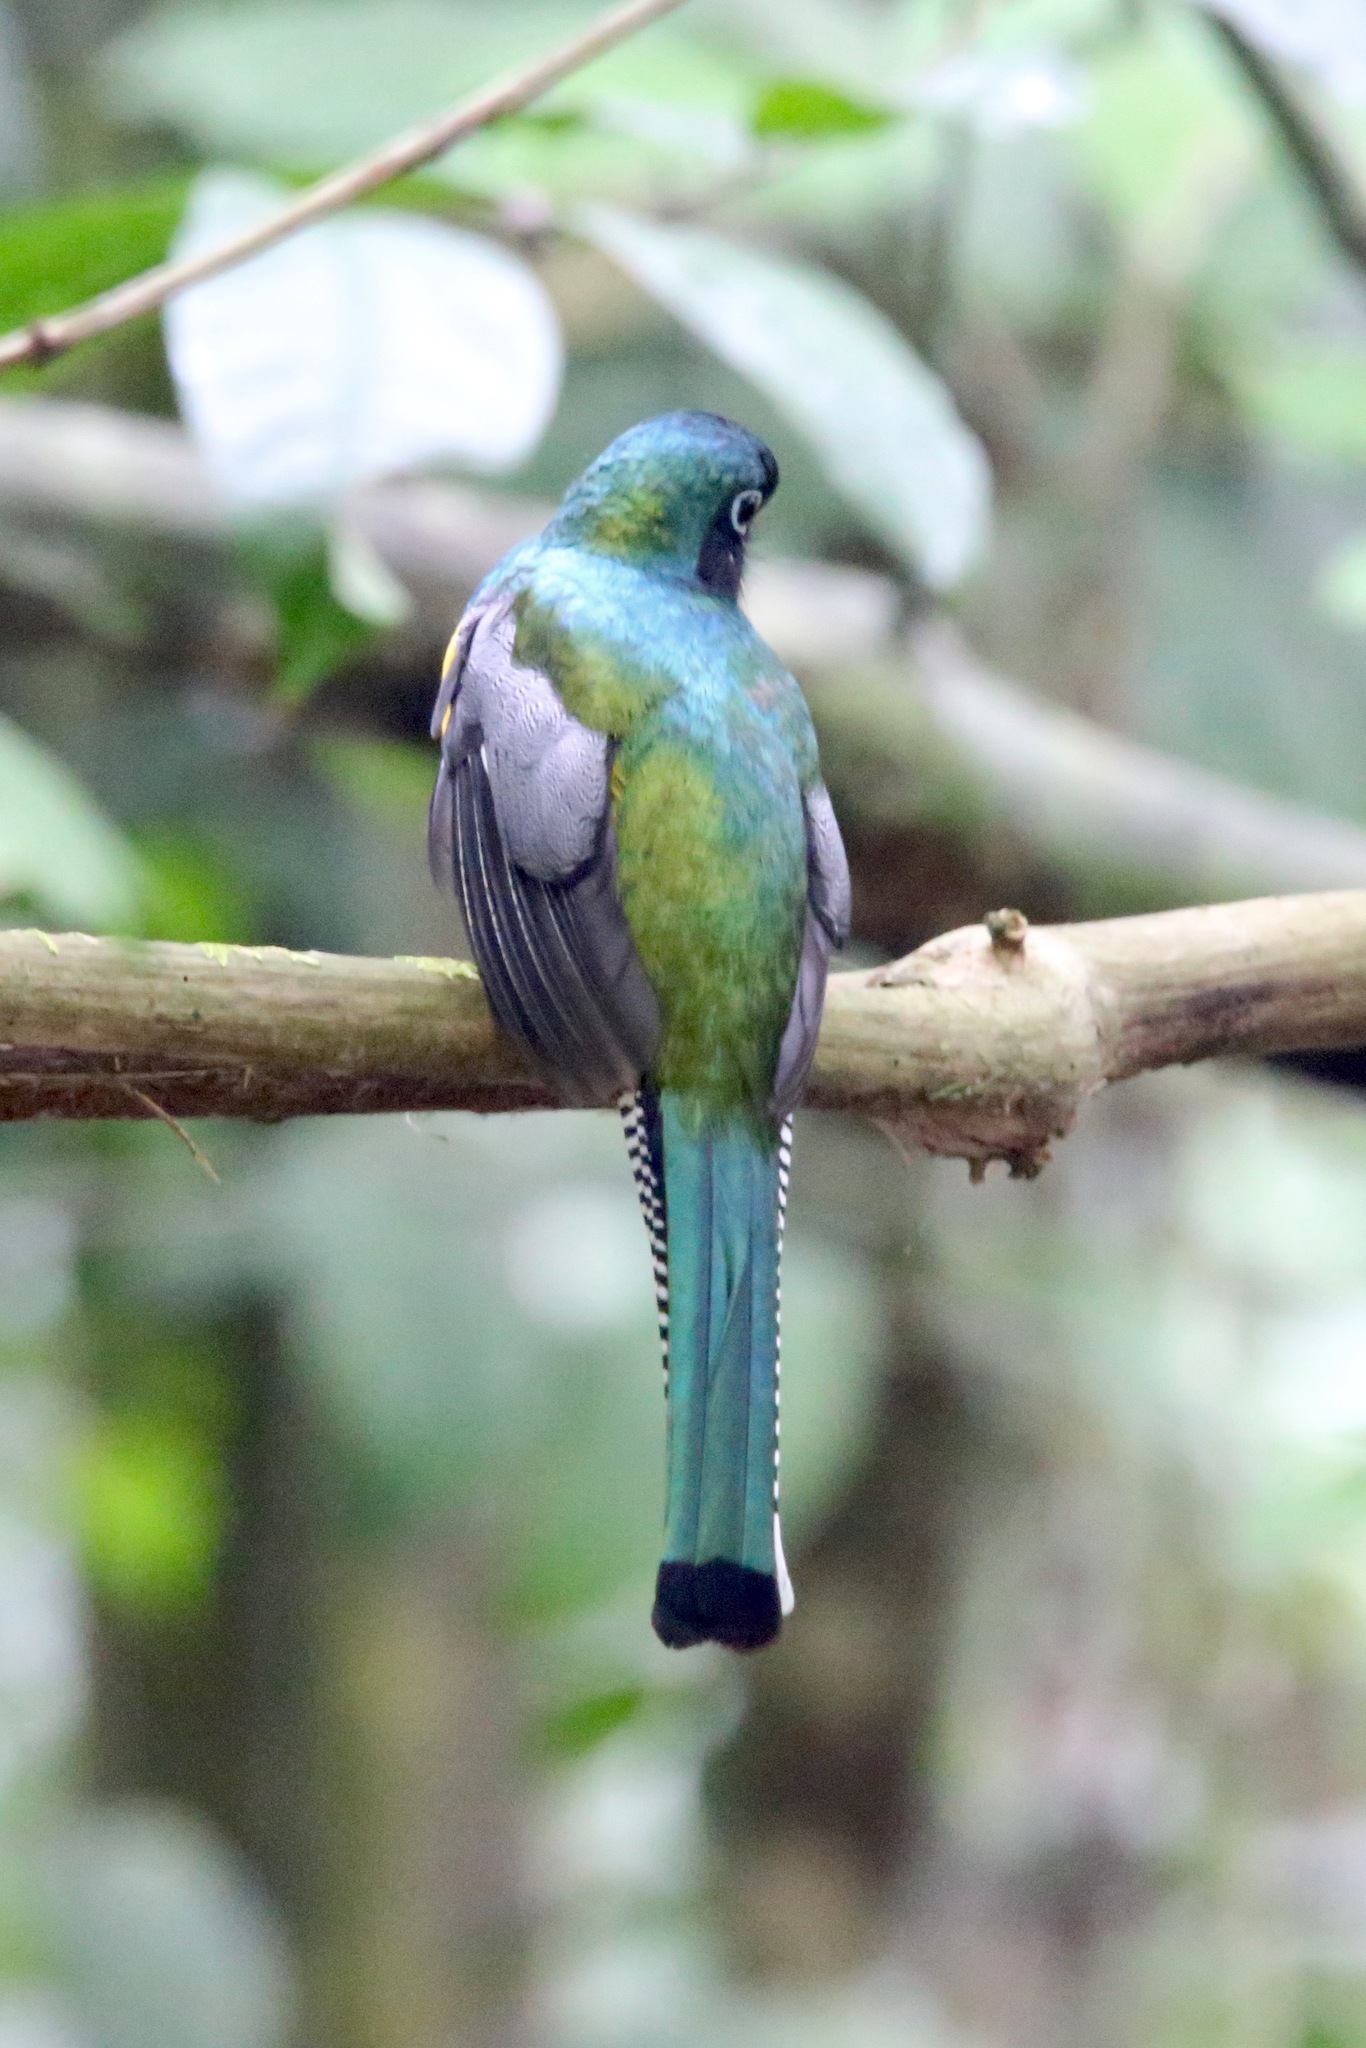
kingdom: Animalia
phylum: Chordata
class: Aves
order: Trogoniformes
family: Trogonidae
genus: Trogon
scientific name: Trogon rufus
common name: Black-throated trogon
